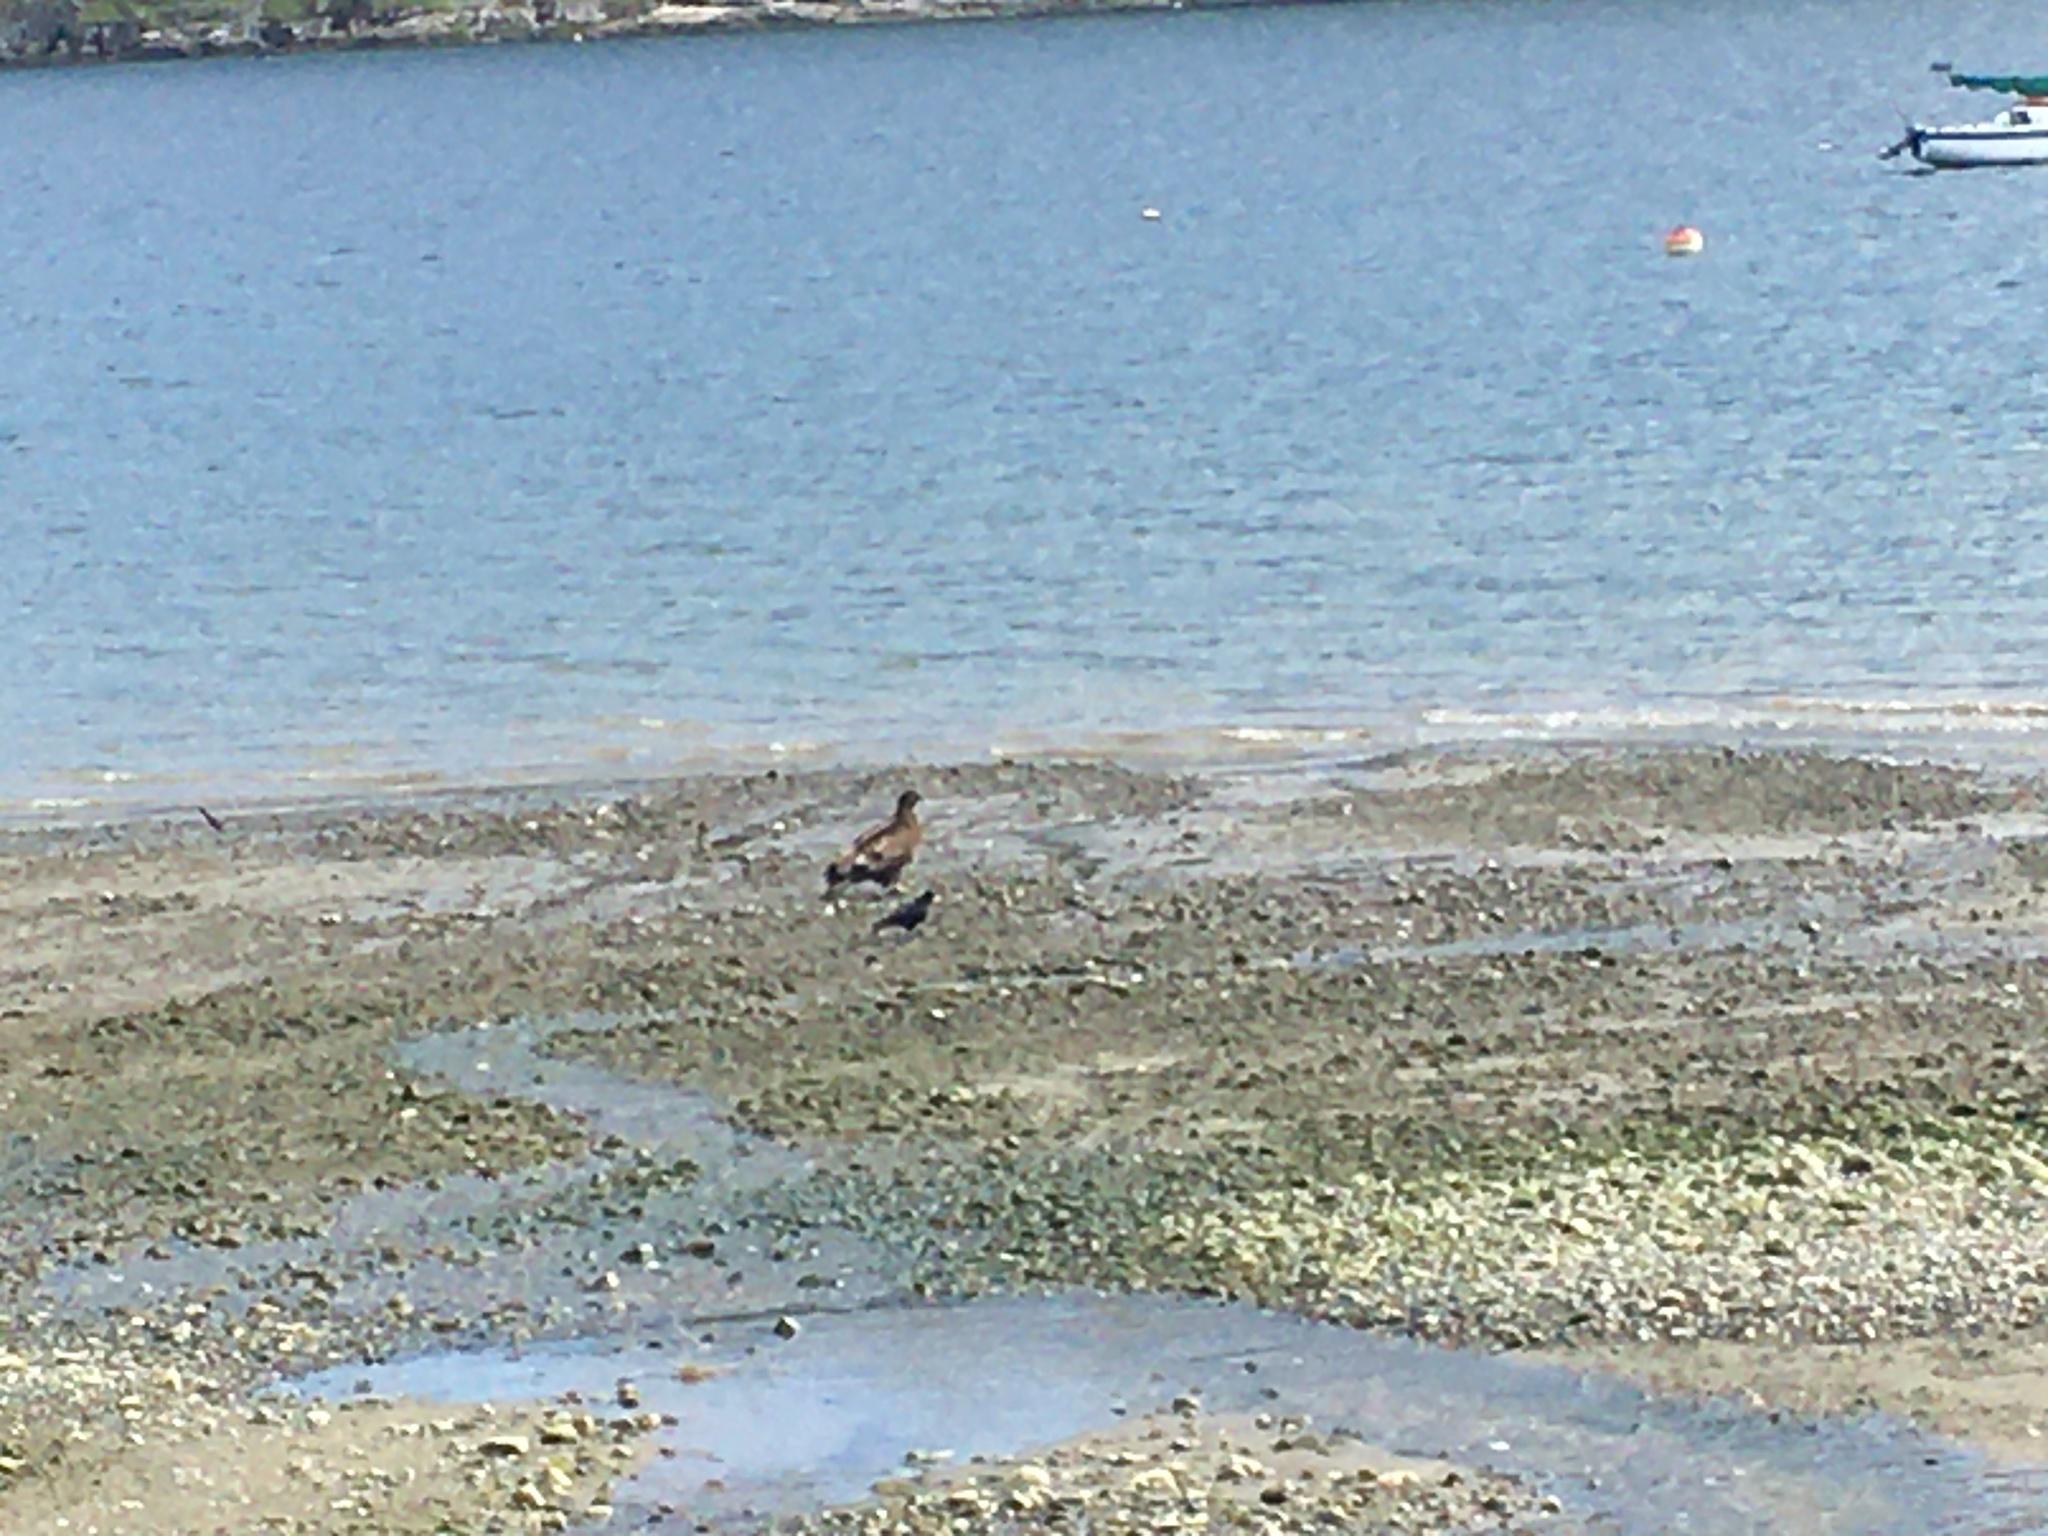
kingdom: Animalia
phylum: Chordata
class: Aves
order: Accipitriformes
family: Accipitridae
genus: Haliaeetus
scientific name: Haliaeetus leucocephalus
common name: Bald eagle
